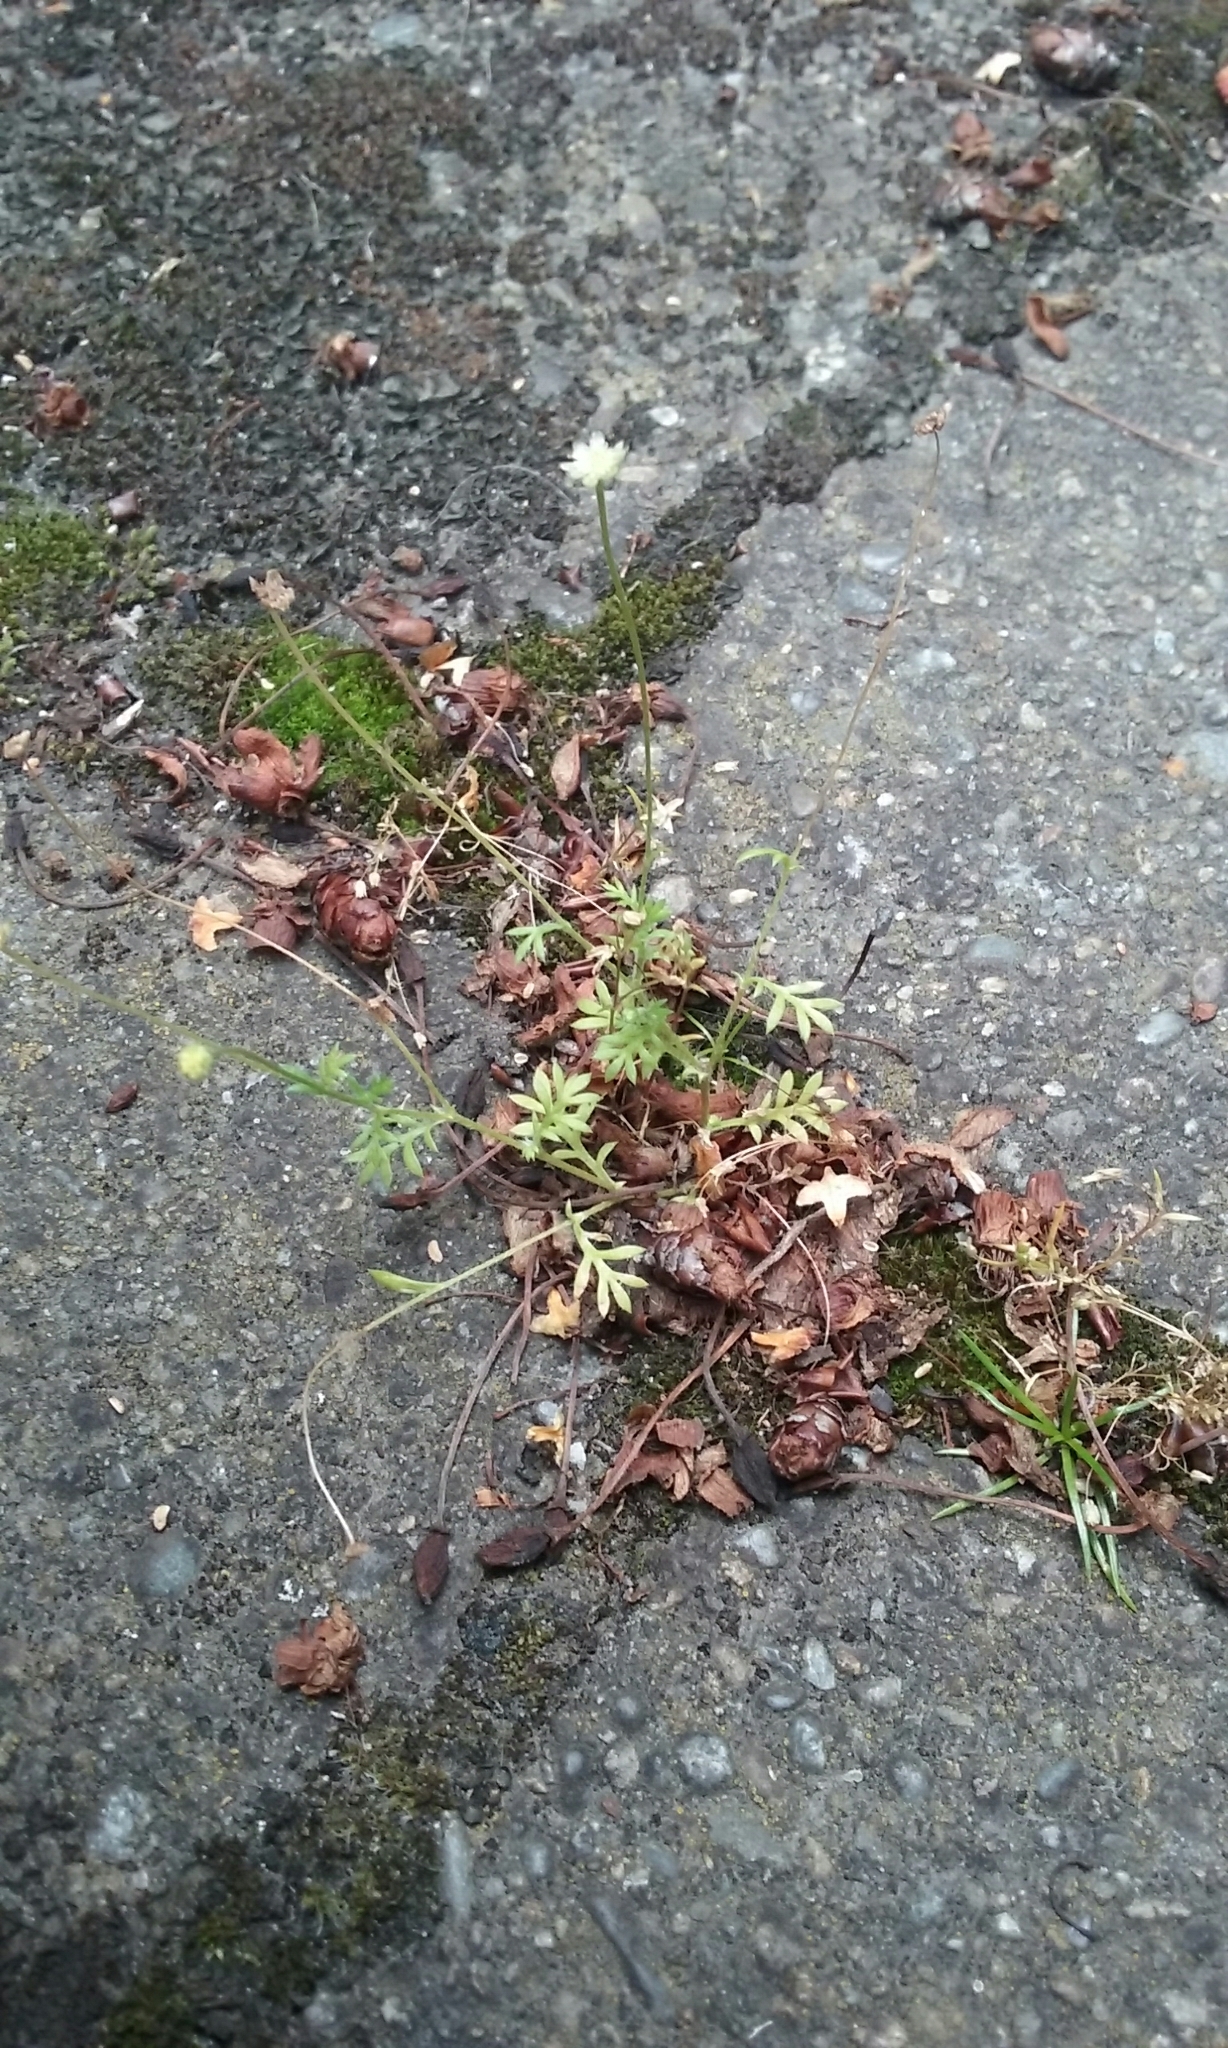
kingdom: Plantae
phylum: Tracheophyta
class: Magnoliopsida
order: Asterales
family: Asteraceae
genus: Cotula
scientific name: Cotula australis
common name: Australian waterbuttons
